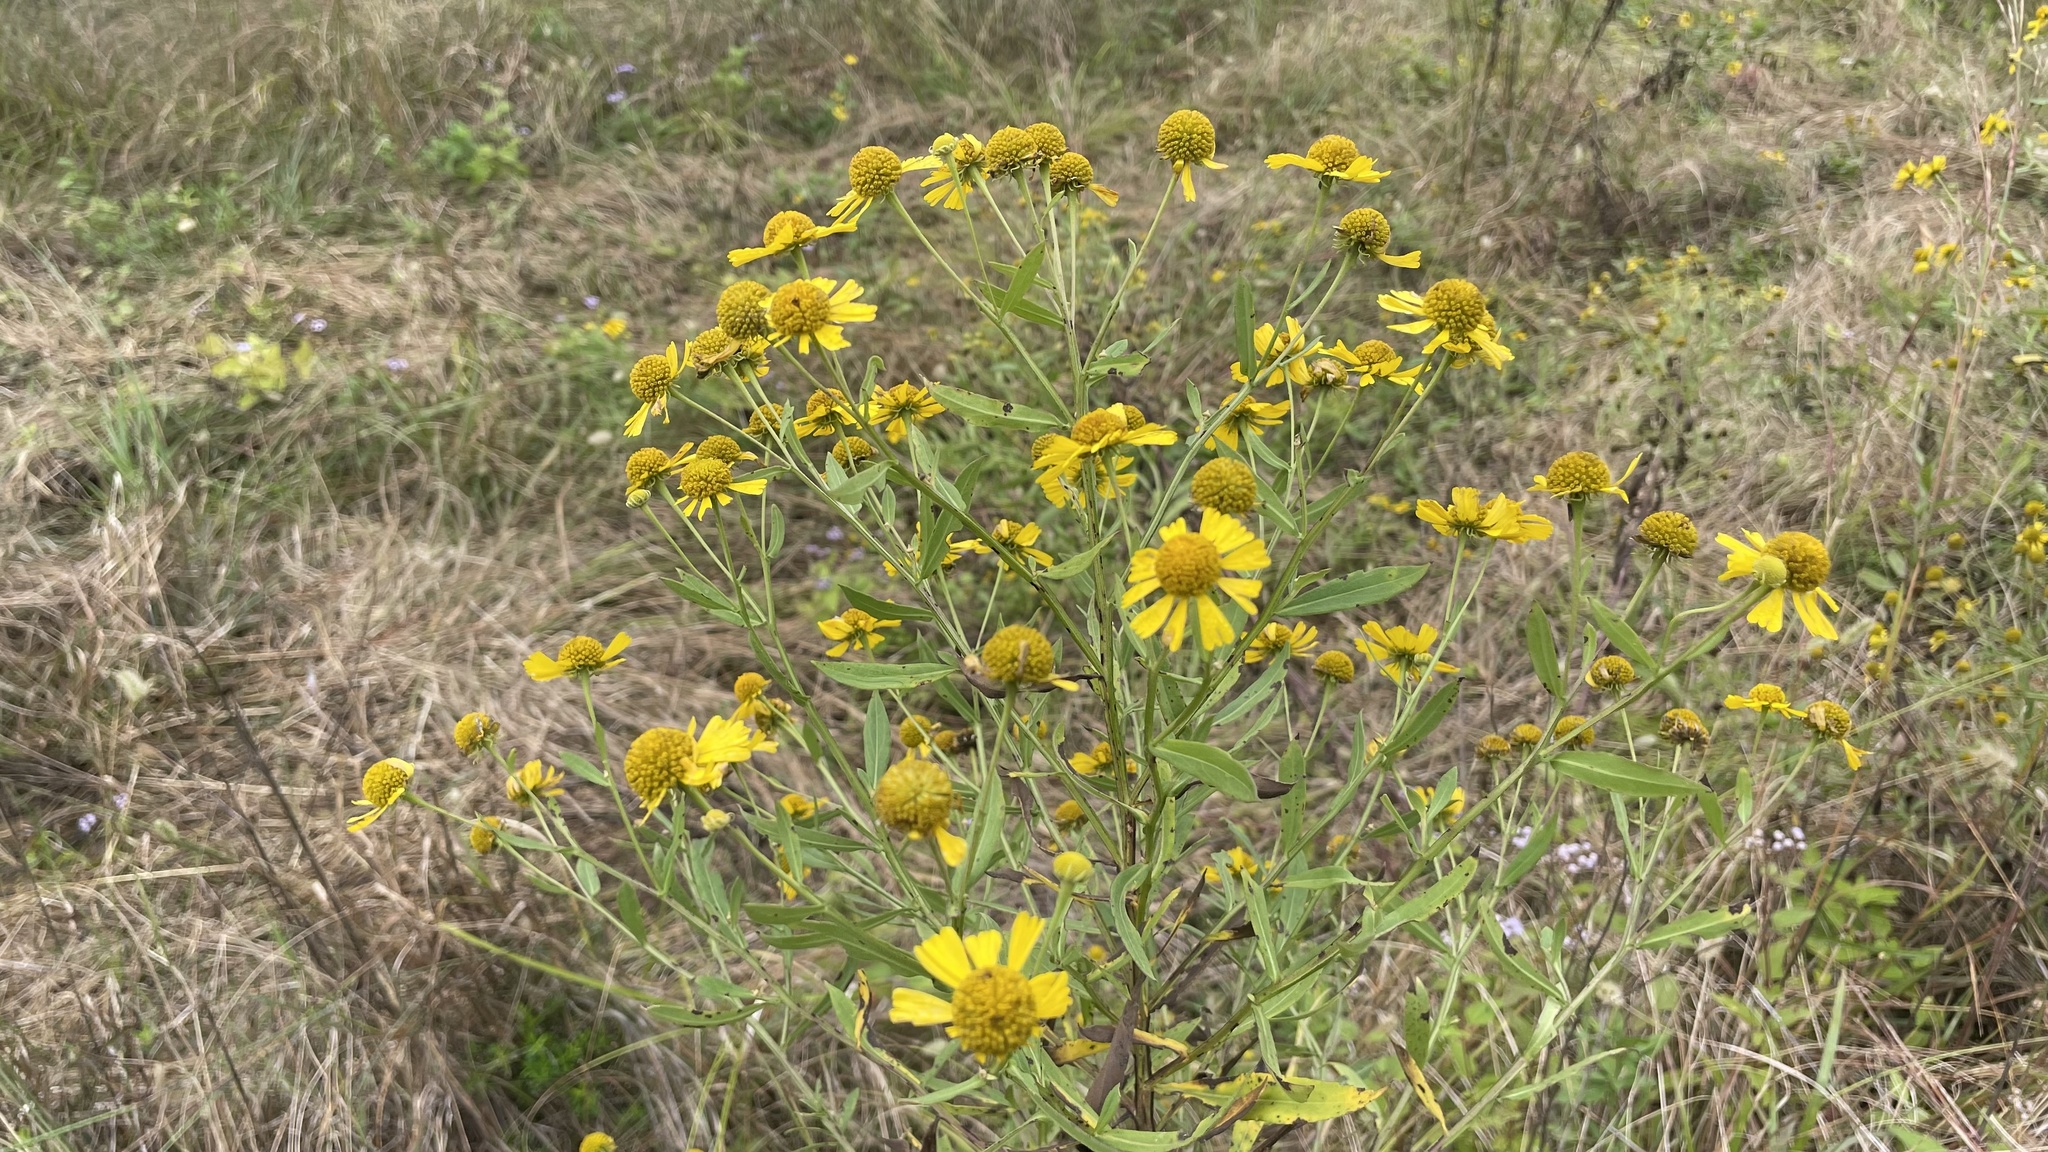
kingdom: Plantae
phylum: Tracheophyta
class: Magnoliopsida
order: Asterales
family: Asteraceae
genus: Helenium
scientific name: Helenium autumnale
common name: Sneezeweed
